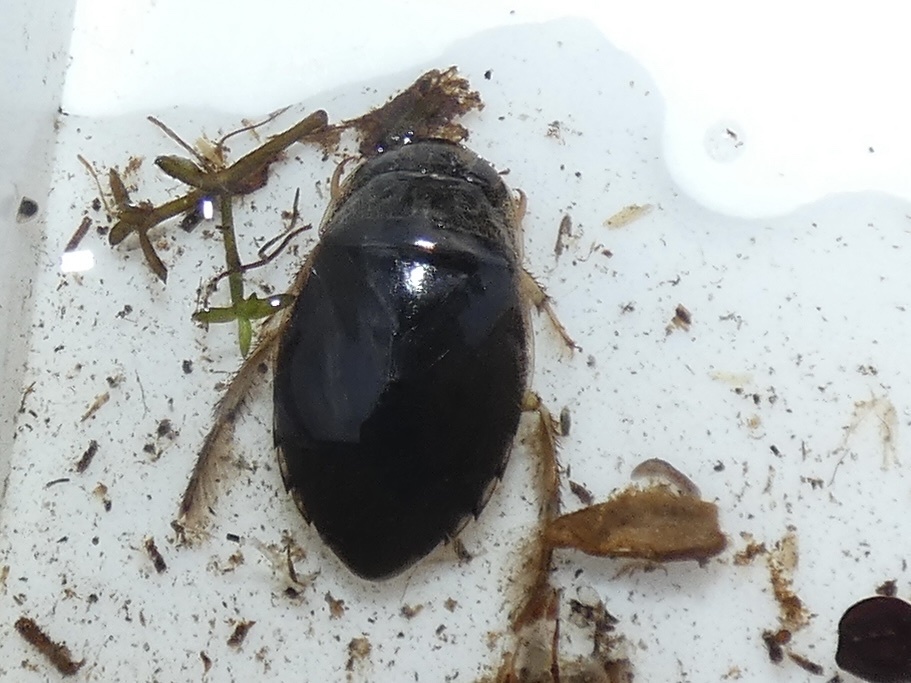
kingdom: Animalia
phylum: Arthropoda
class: Insecta
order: Hemiptera
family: Naucoridae
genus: Ilyocoris
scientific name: Ilyocoris cimicoides
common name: Saucer bugs
